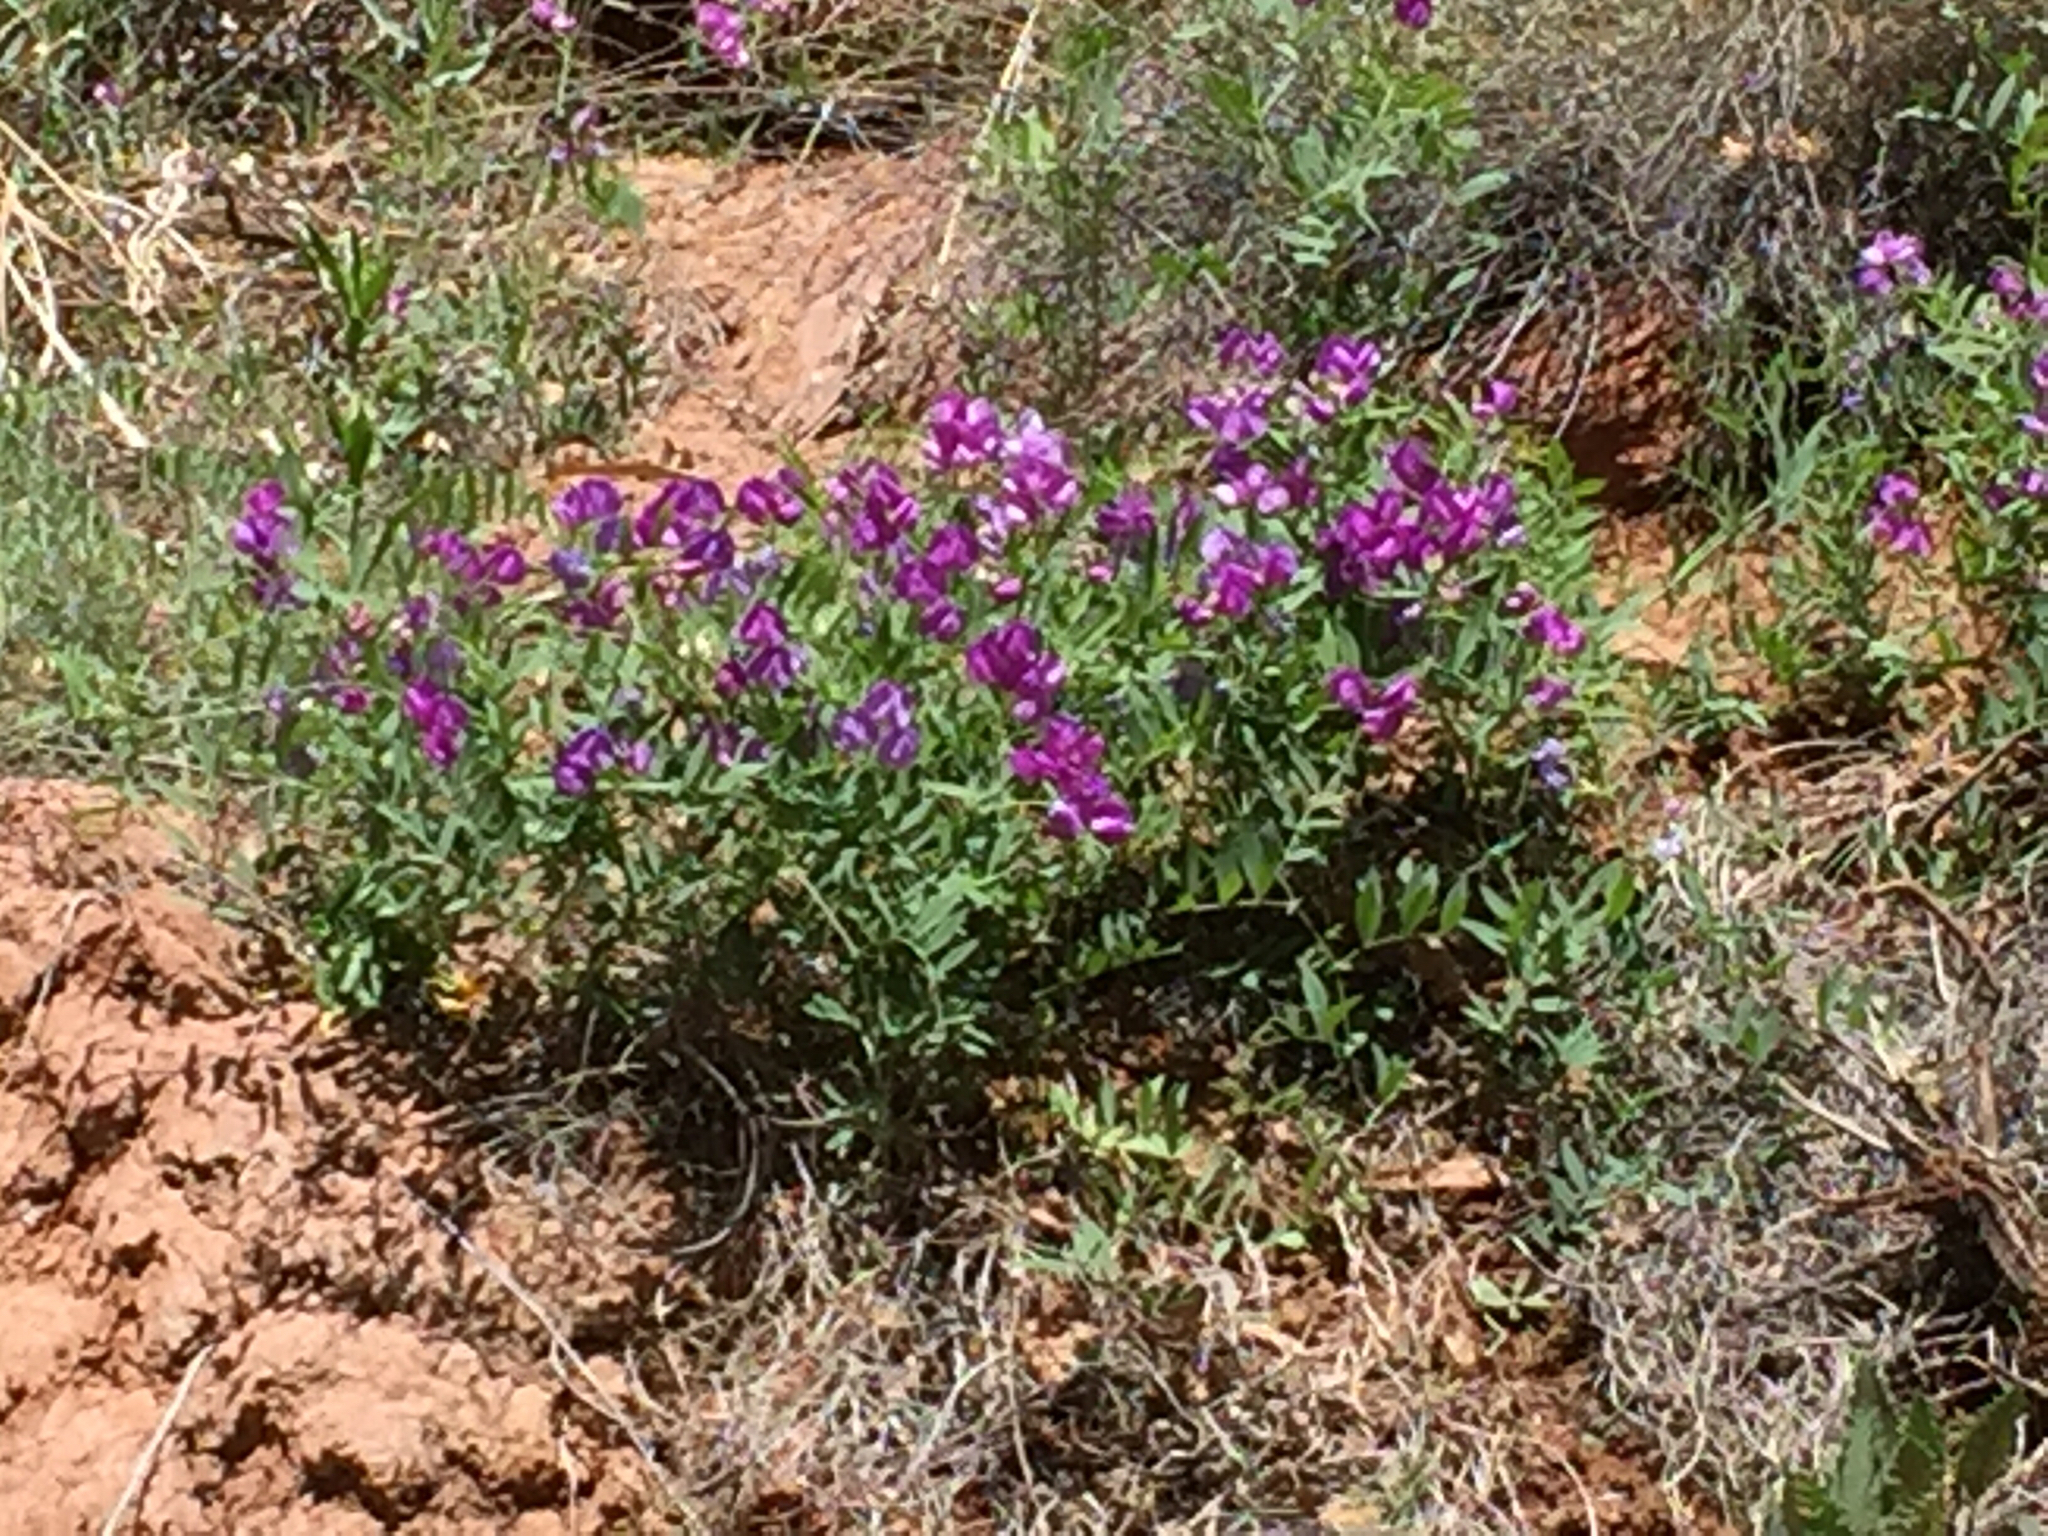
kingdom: Plantae
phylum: Tracheophyta
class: Magnoliopsida
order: Fabales
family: Fabaceae
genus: Lathyrus
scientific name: Lathyrus brachycalyx
